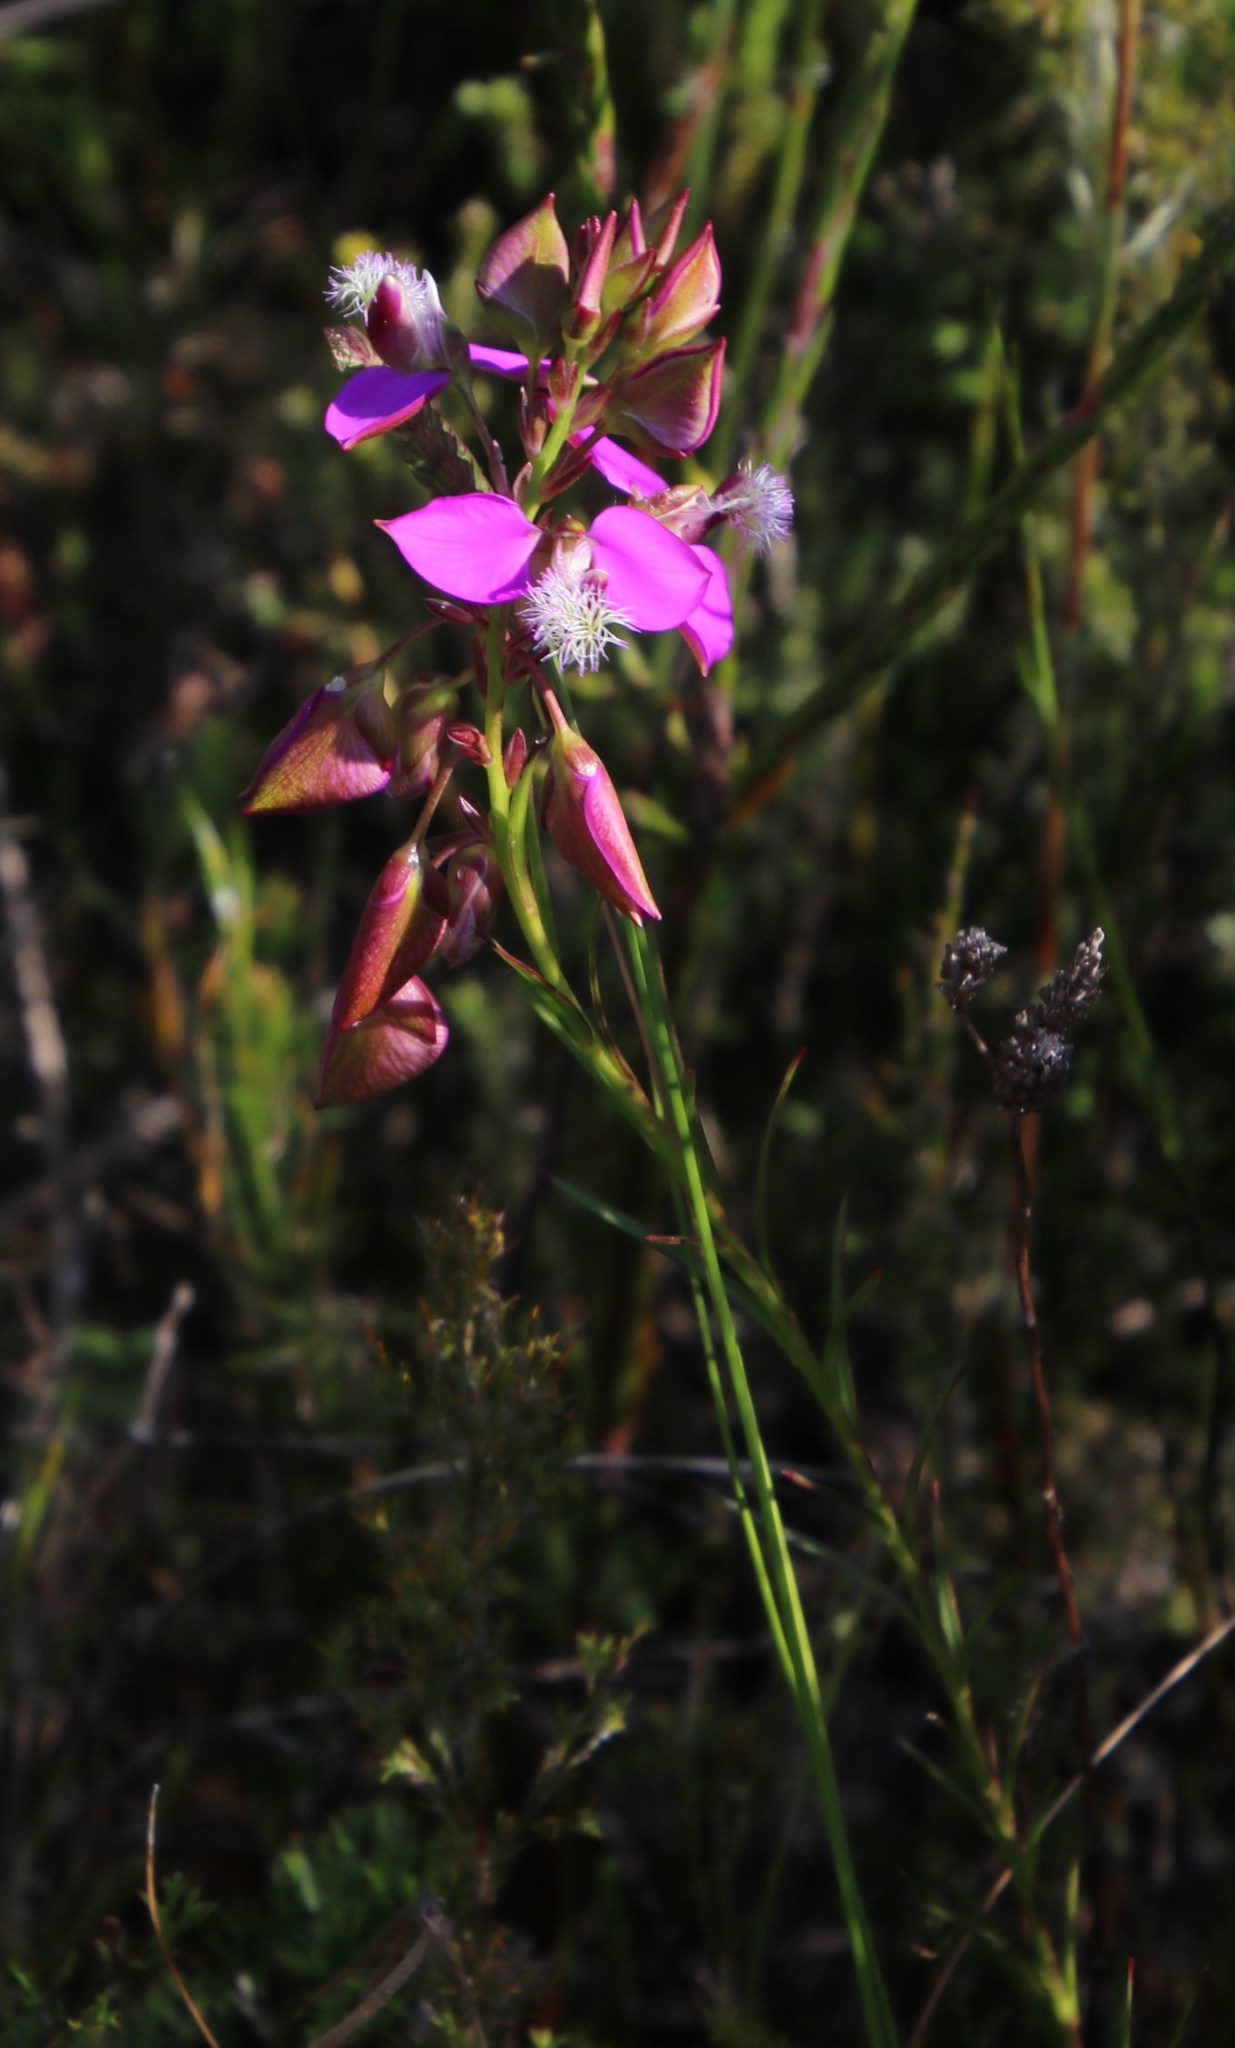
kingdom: Plantae
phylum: Tracheophyta
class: Magnoliopsida
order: Fabales
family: Polygalaceae
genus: Polygala
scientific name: Polygala bracteolata
